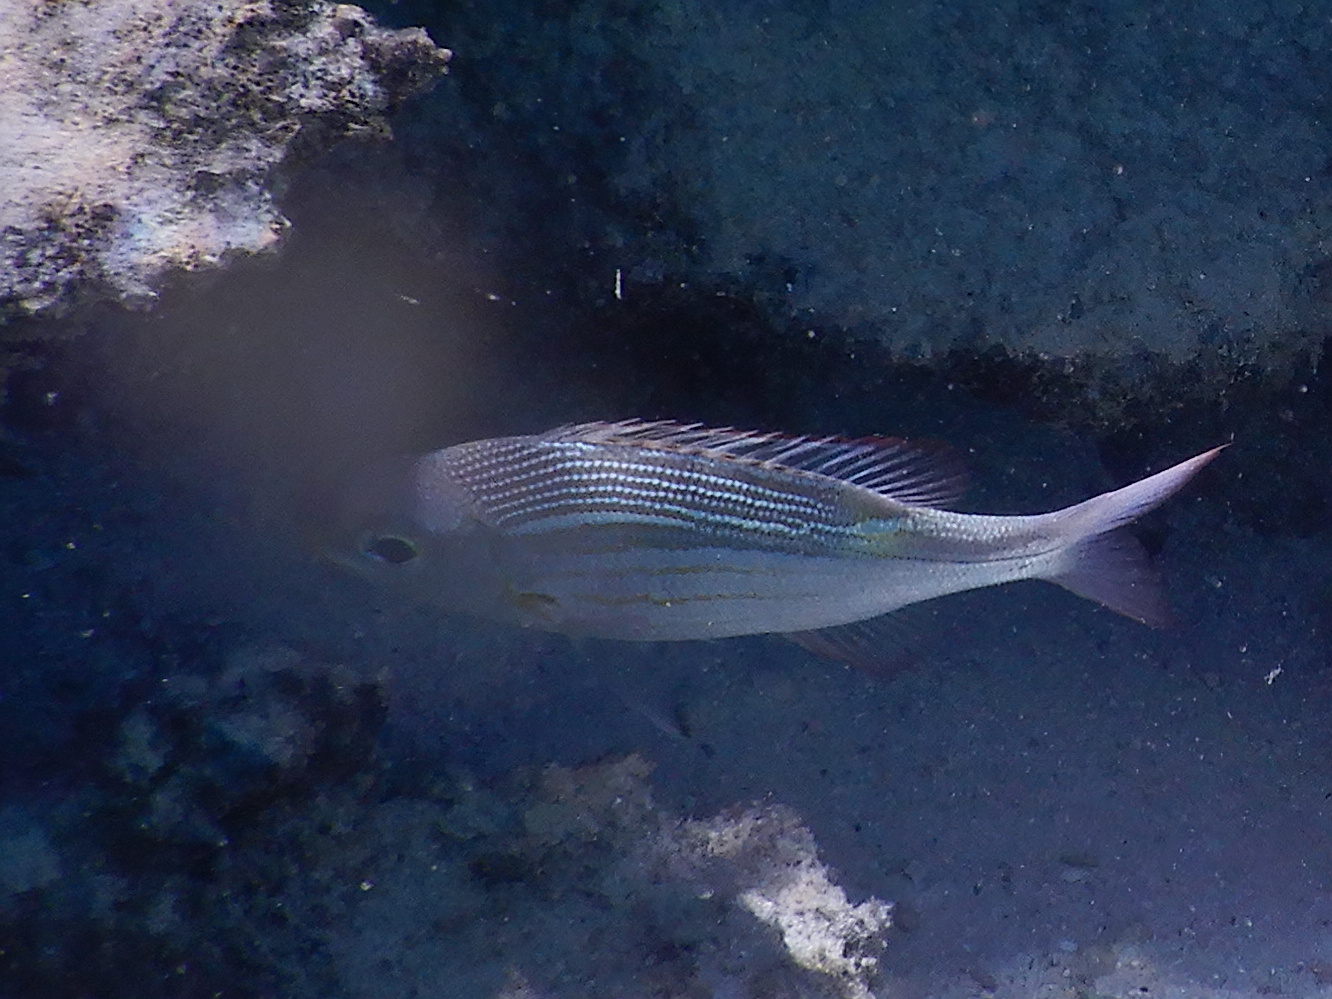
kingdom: Animalia
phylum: Chordata
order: Perciformes
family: Lethrinidae
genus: Gnathodentex
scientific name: Gnathodentex aureolineatus
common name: Gold-lined sea bream
